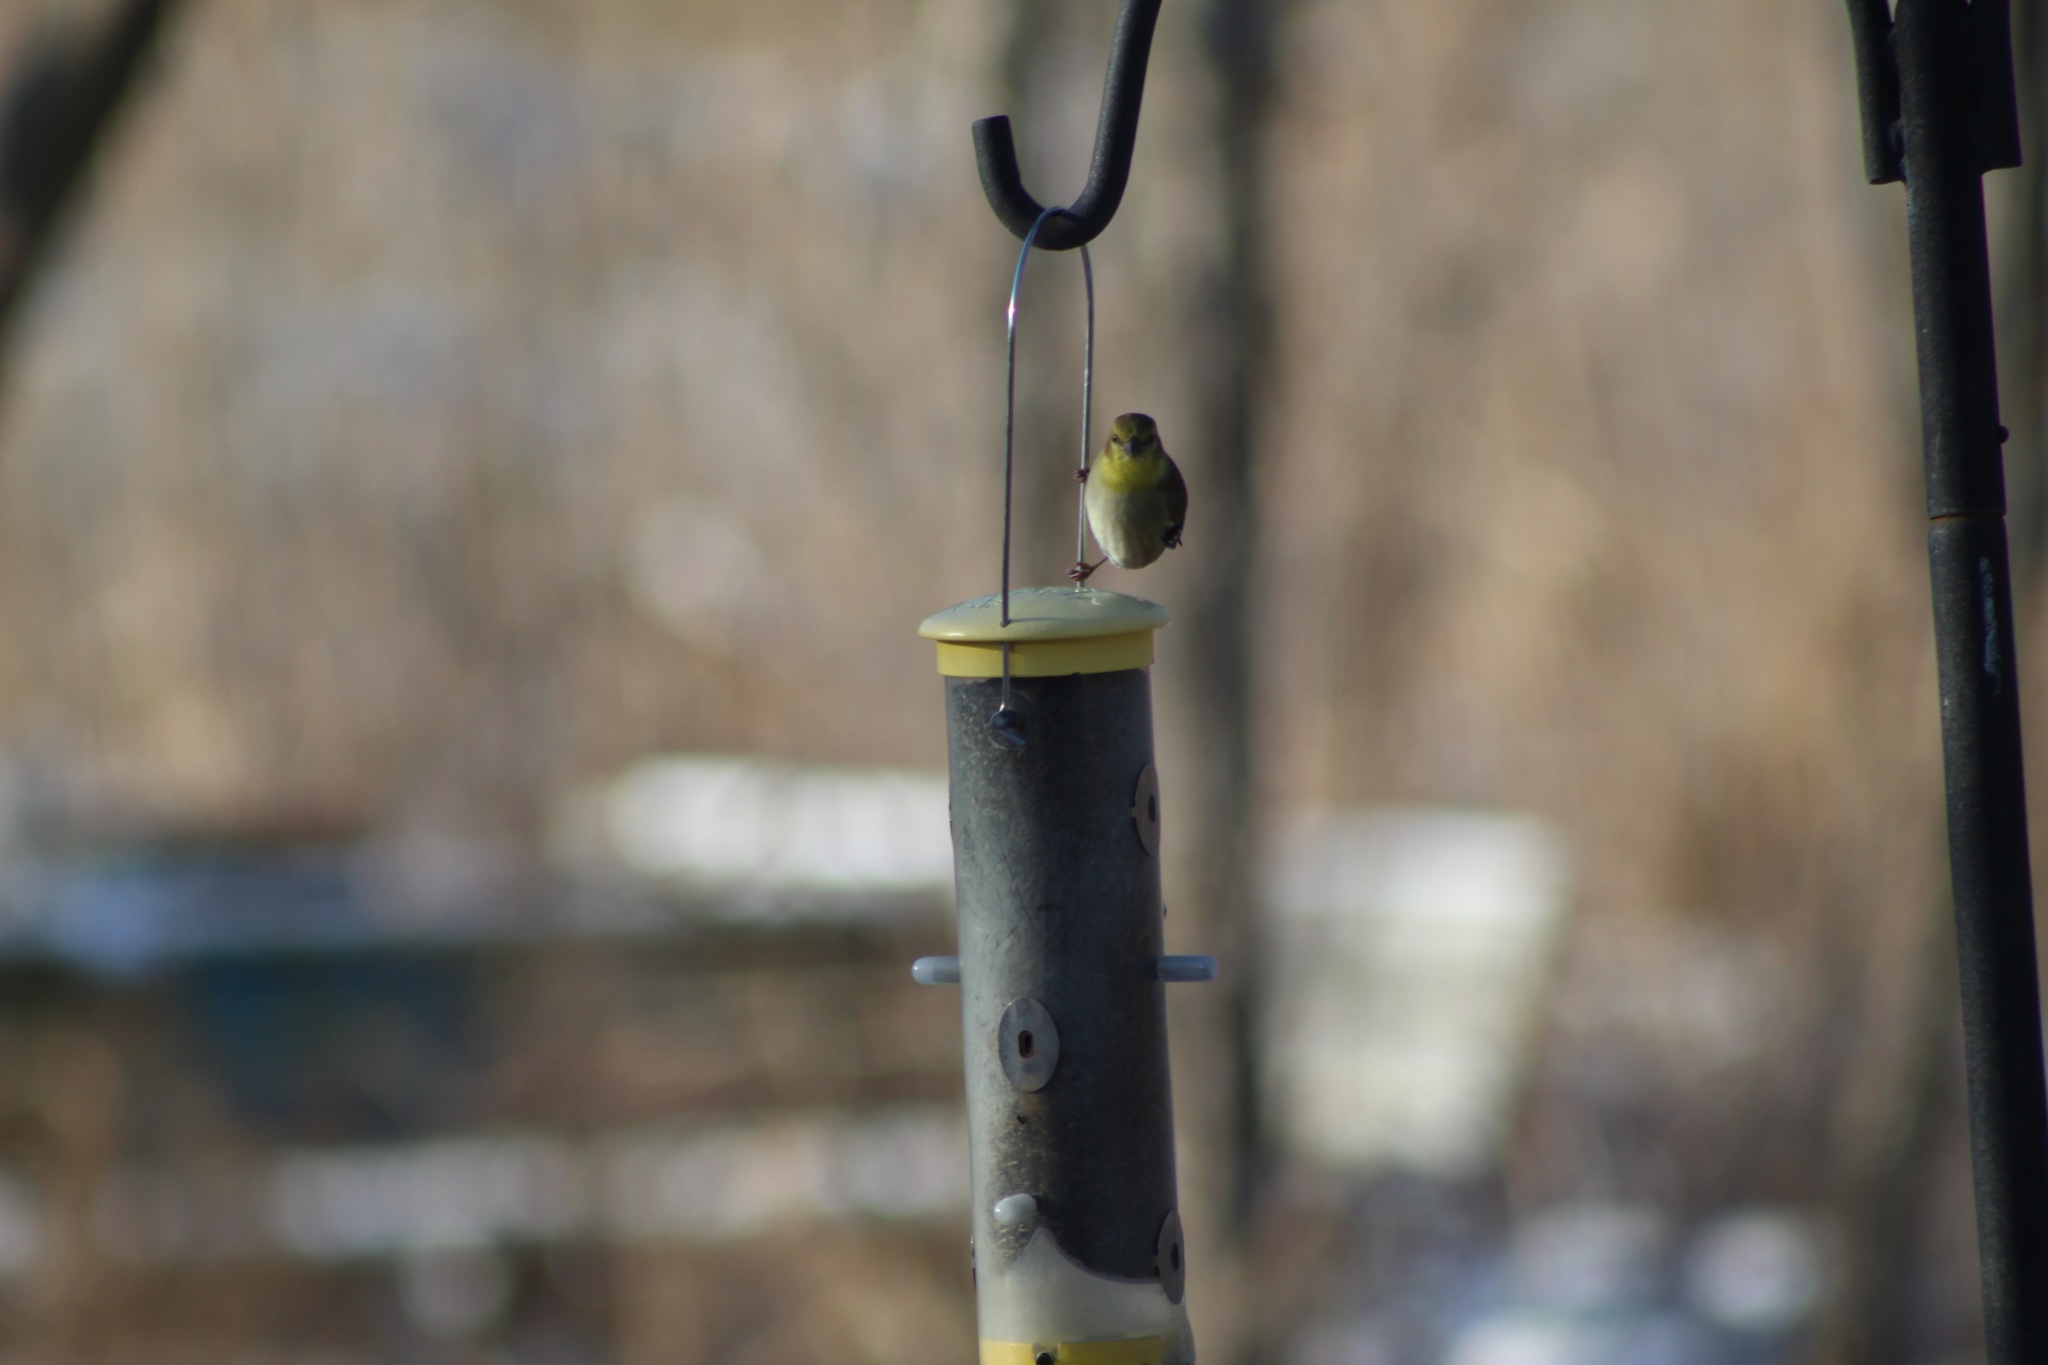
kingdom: Animalia
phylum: Chordata
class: Aves
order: Passeriformes
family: Fringillidae
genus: Spinus
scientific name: Spinus tristis
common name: American goldfinch
